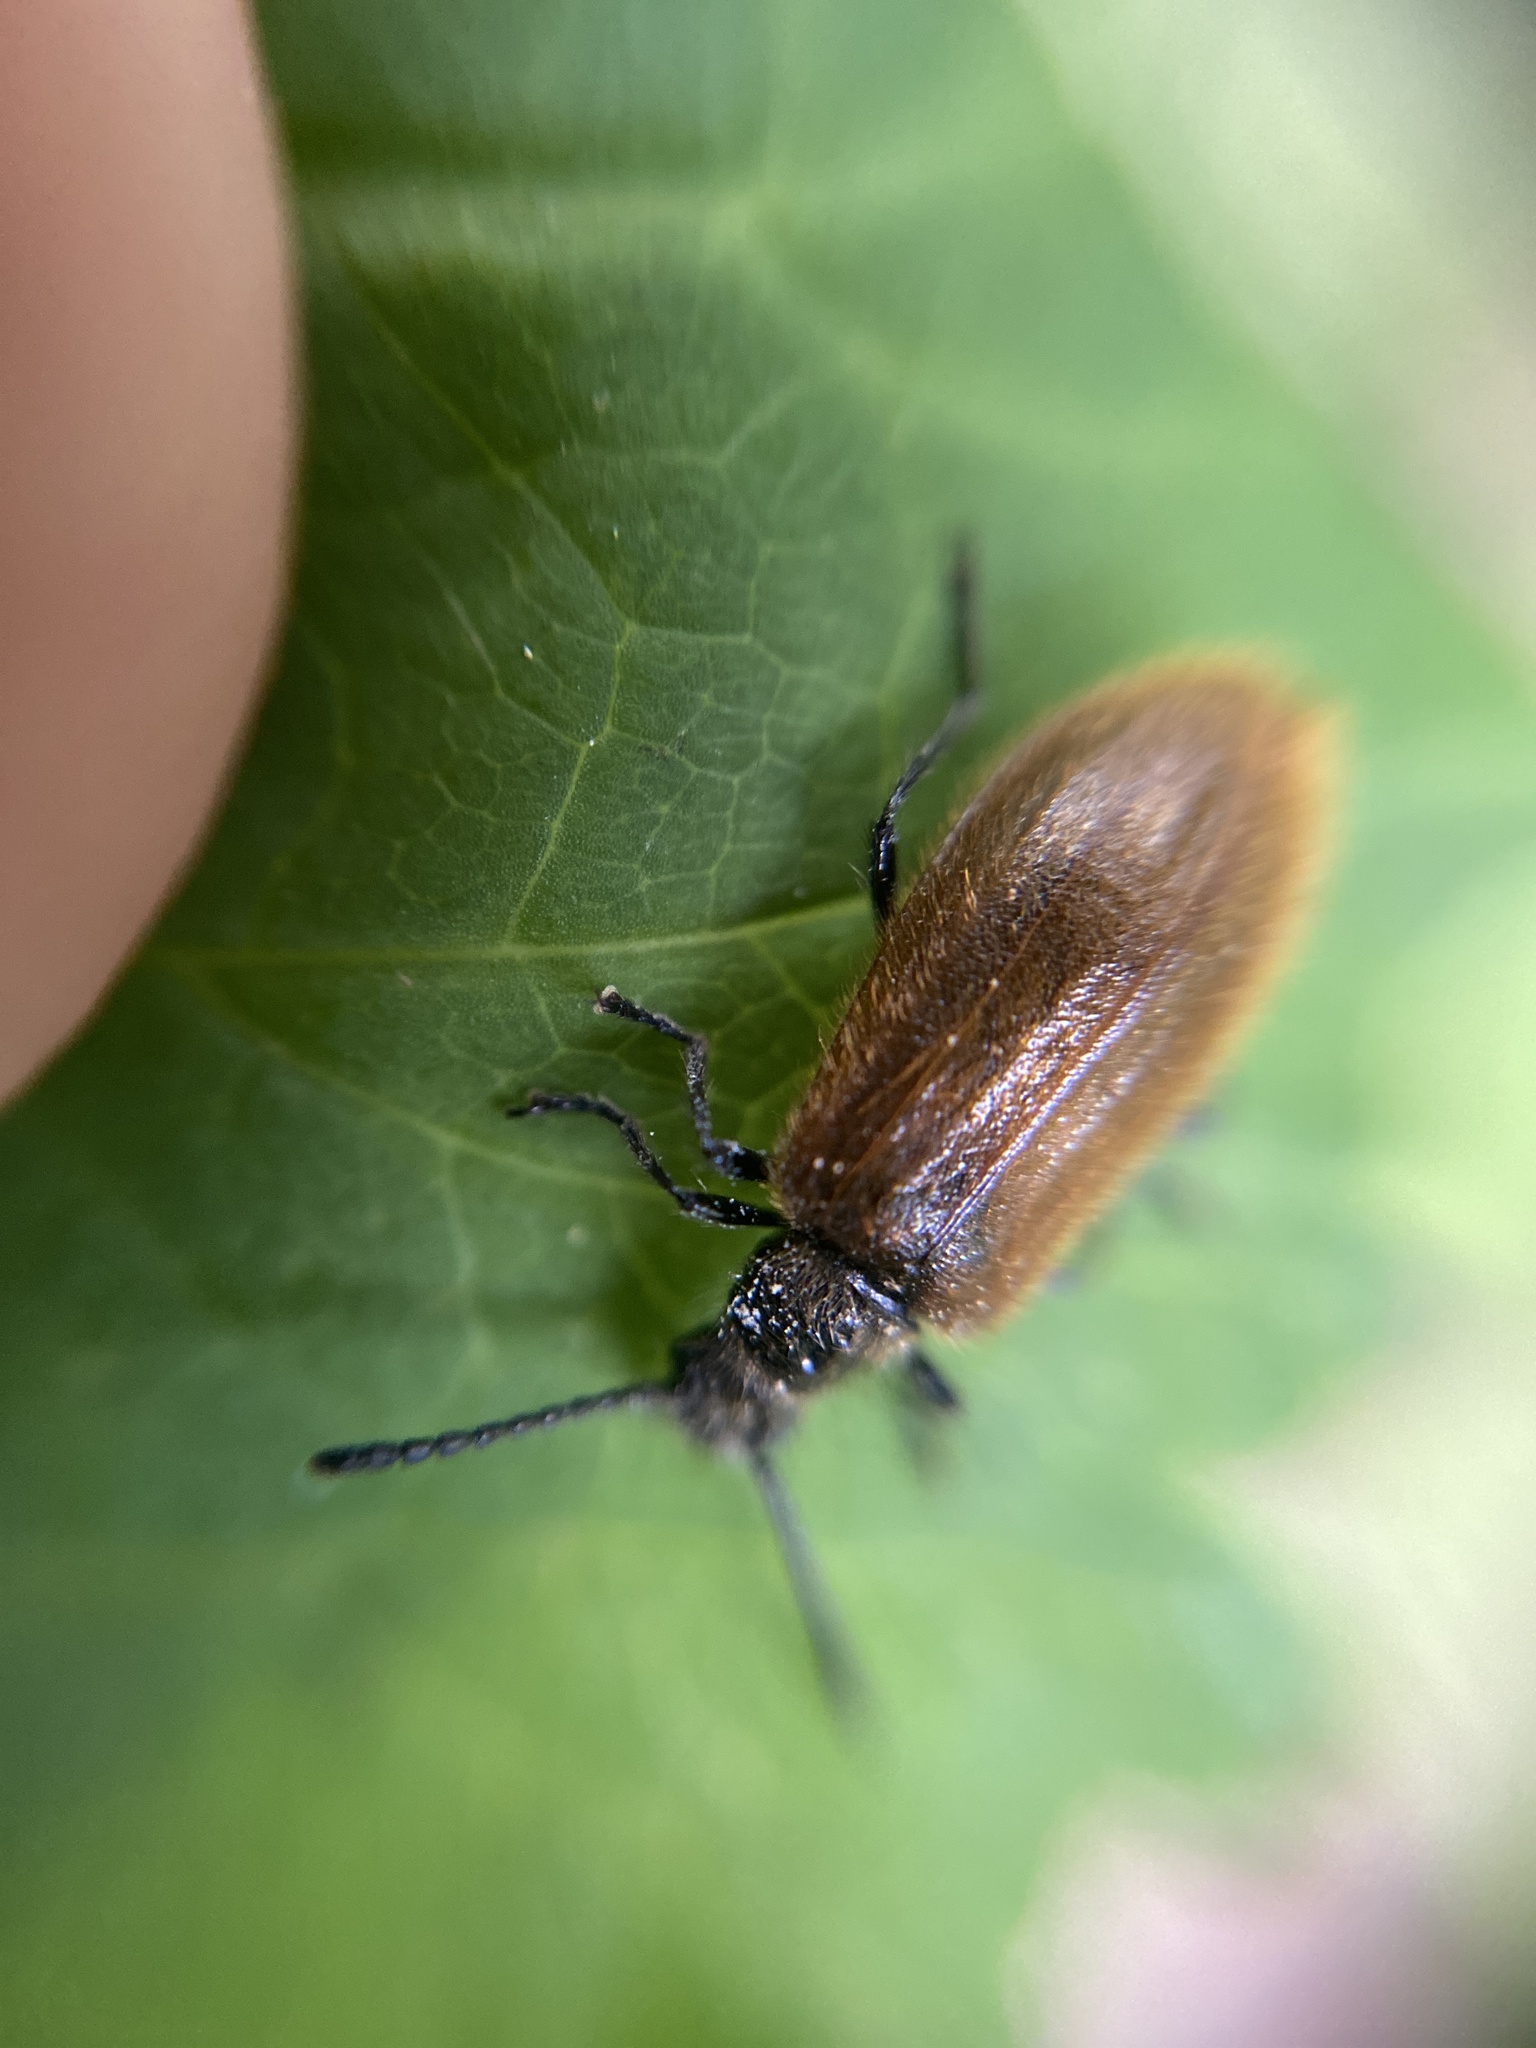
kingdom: Animalia
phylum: Arthropoda
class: Insecta
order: Coleoptera
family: Tenebrionidae
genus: Lagria
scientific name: Lagria hirta
